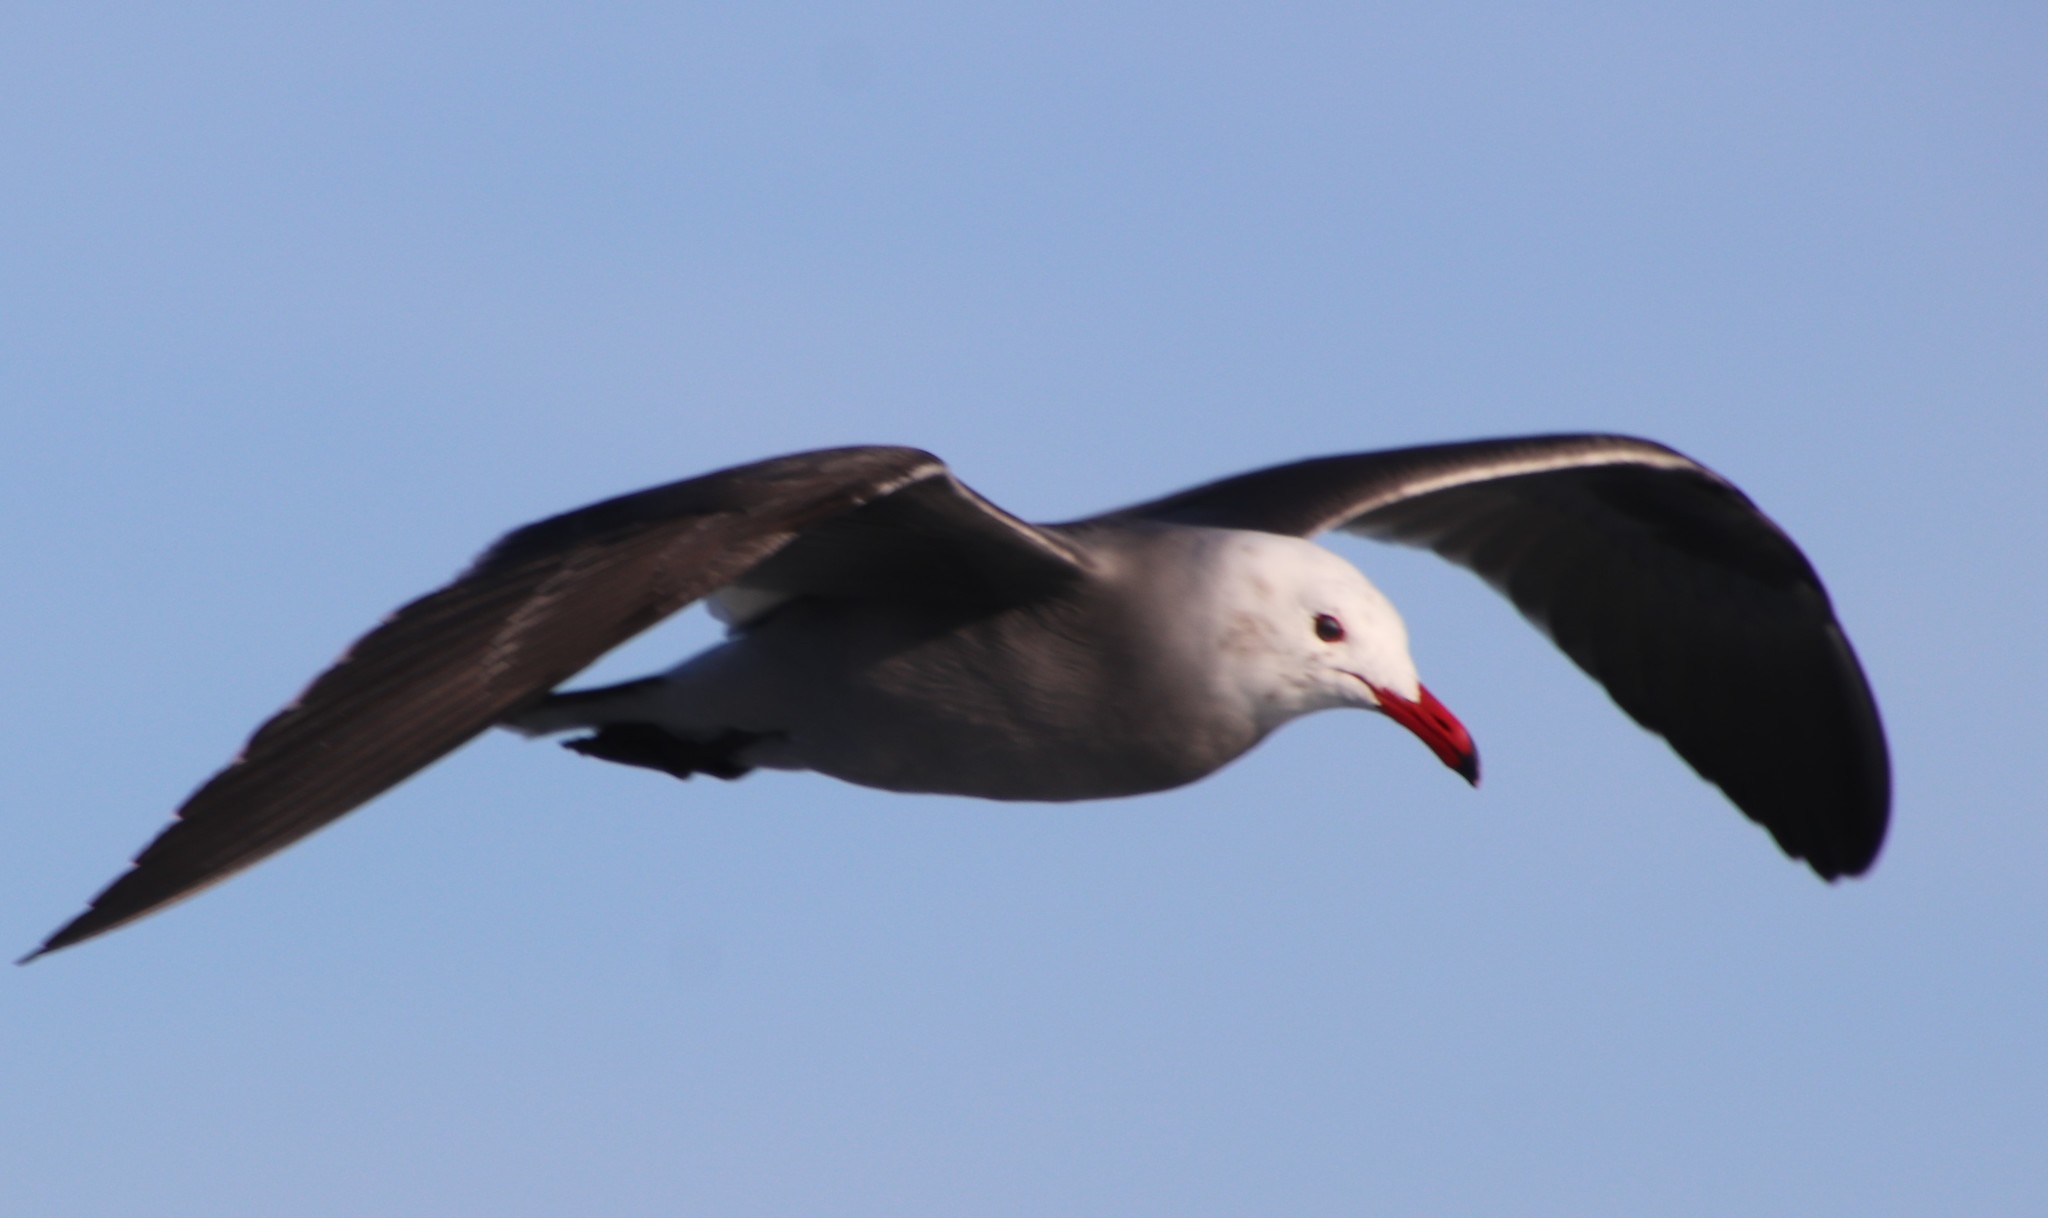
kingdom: Animalia
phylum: Chordata
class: Aves
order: Charadriiformes
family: Laridae
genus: Larus
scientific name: Larus heermanni
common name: Heermann's gull
